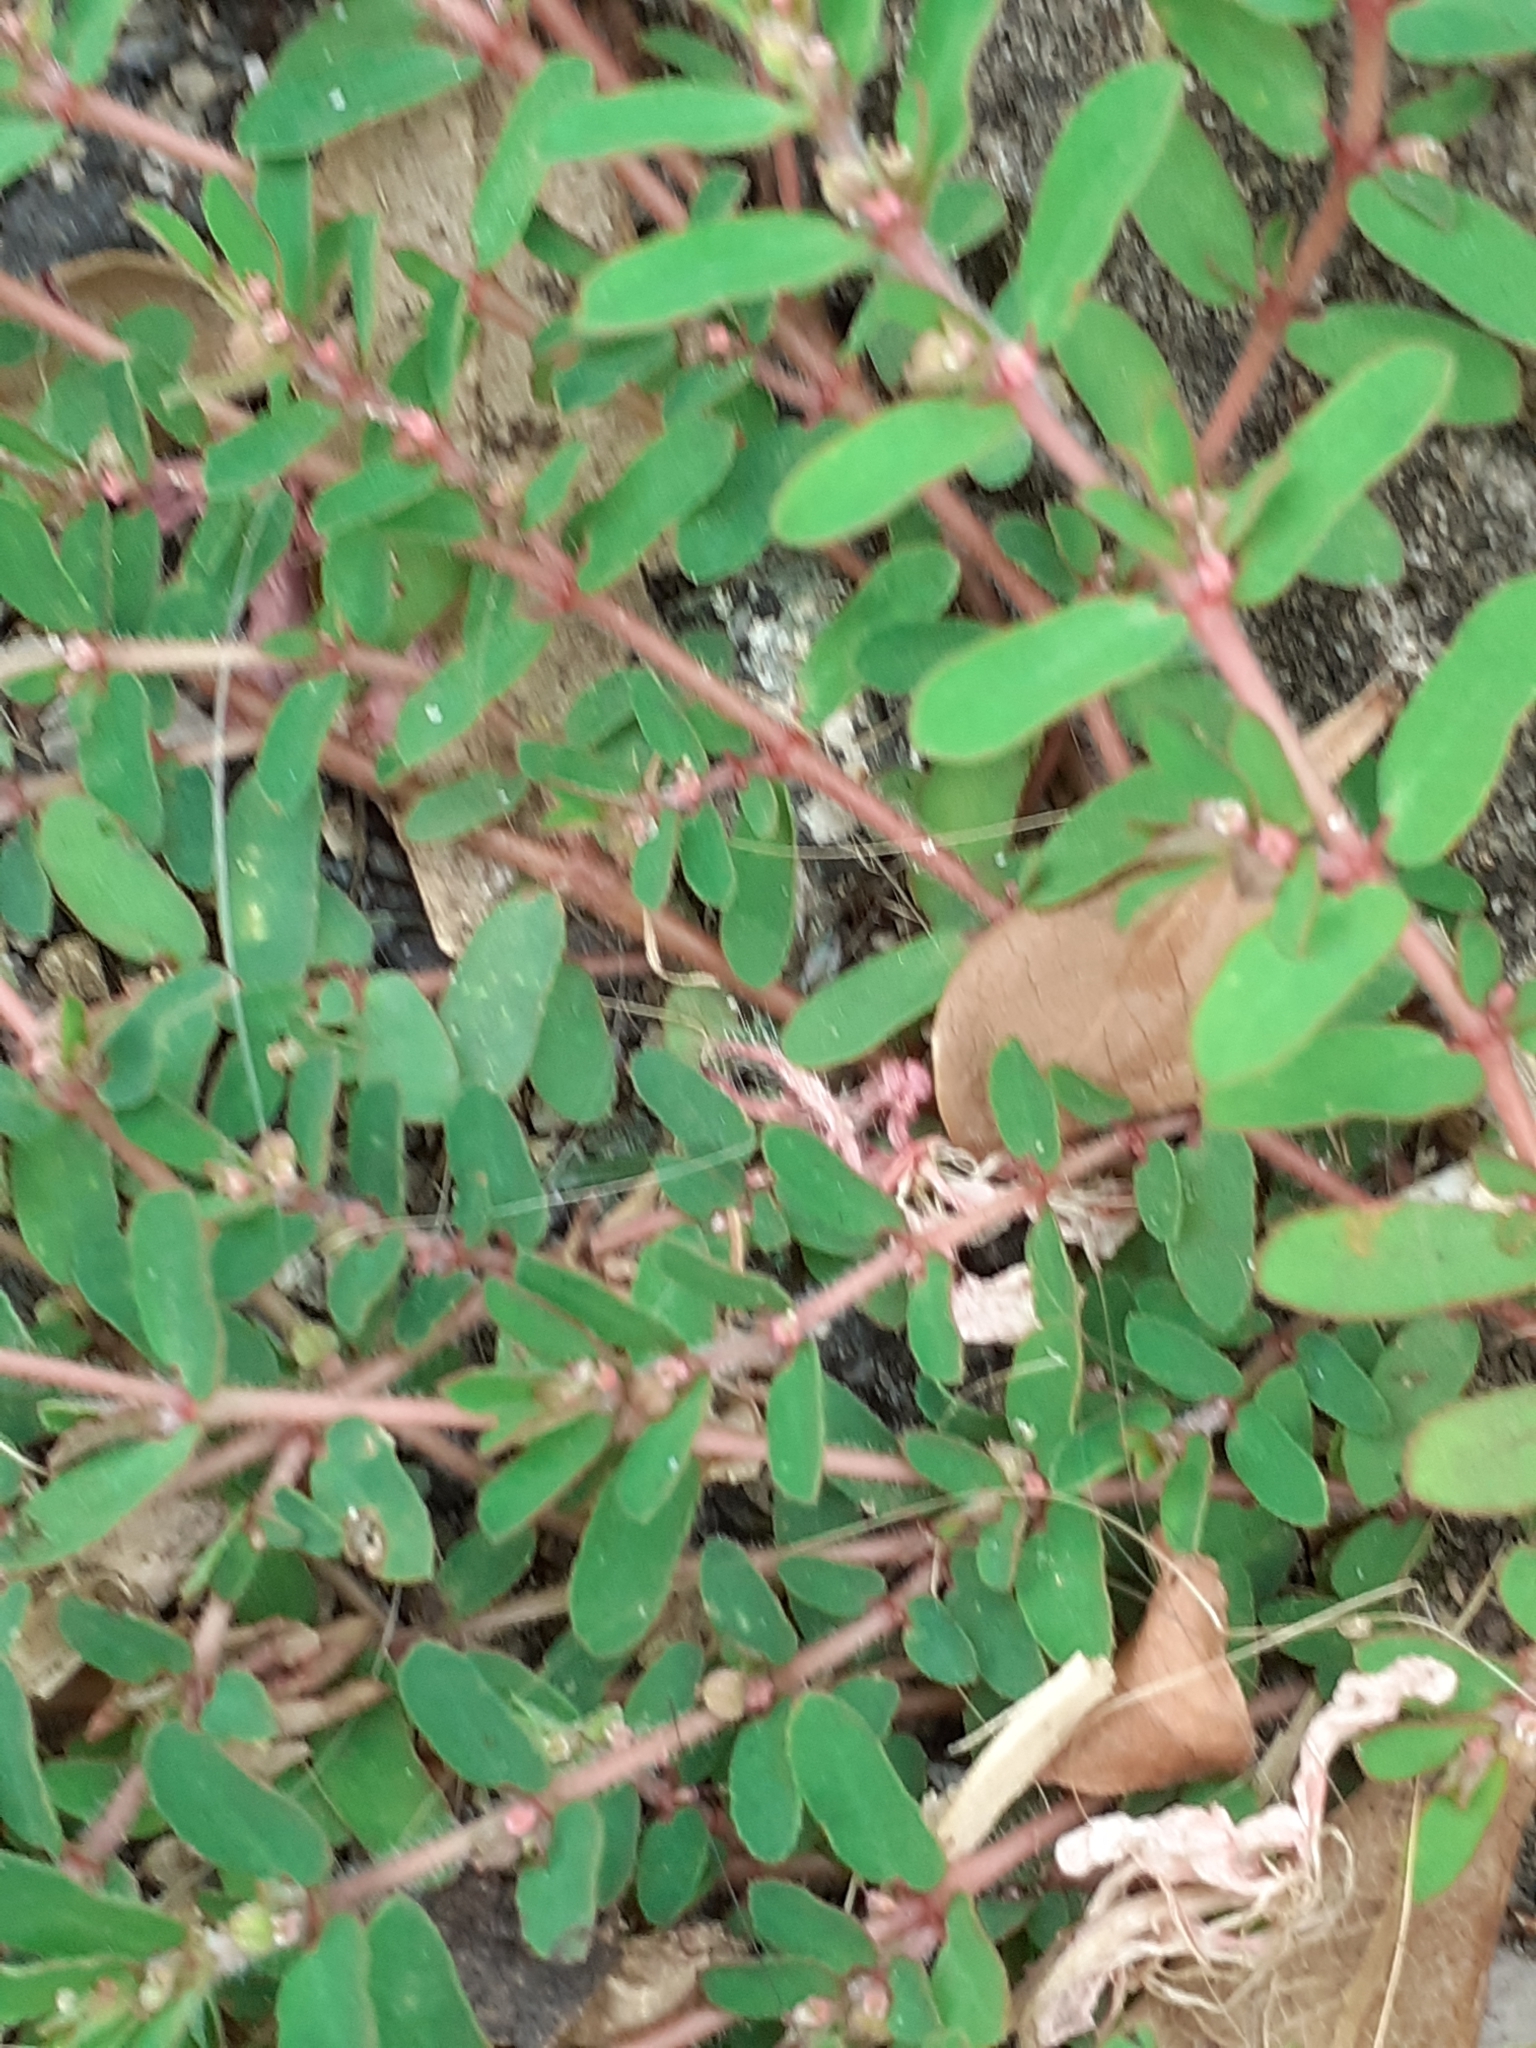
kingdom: Plantae
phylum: Tracheophyta
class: Magnoliopsida
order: Malpighiales
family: Euphorbiaceae
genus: Euphorbia
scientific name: Euphorbia maculata
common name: Spotted spurge
